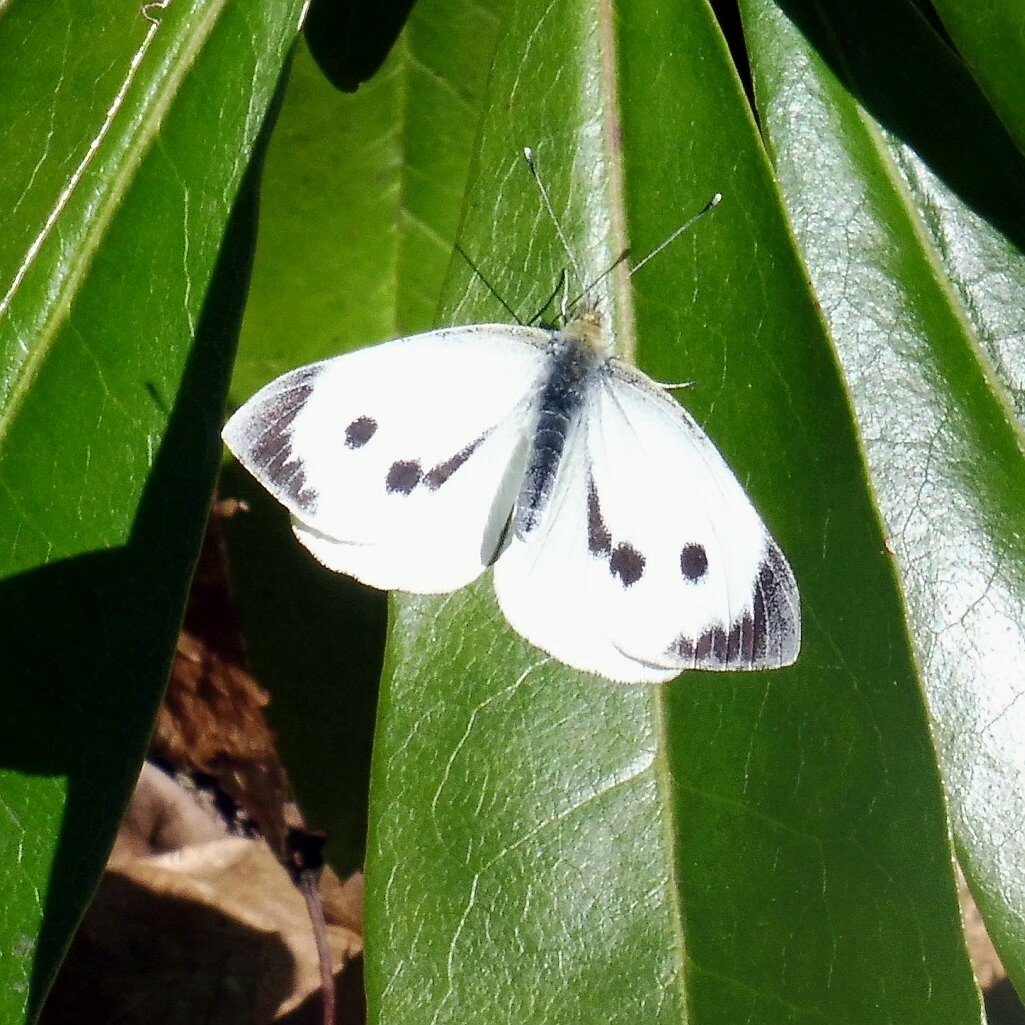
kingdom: Animalia
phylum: Arthropoda
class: Insecta
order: Lepidoptera
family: Pieridae
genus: Pieris
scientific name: Pieris brassicae
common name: Large white
